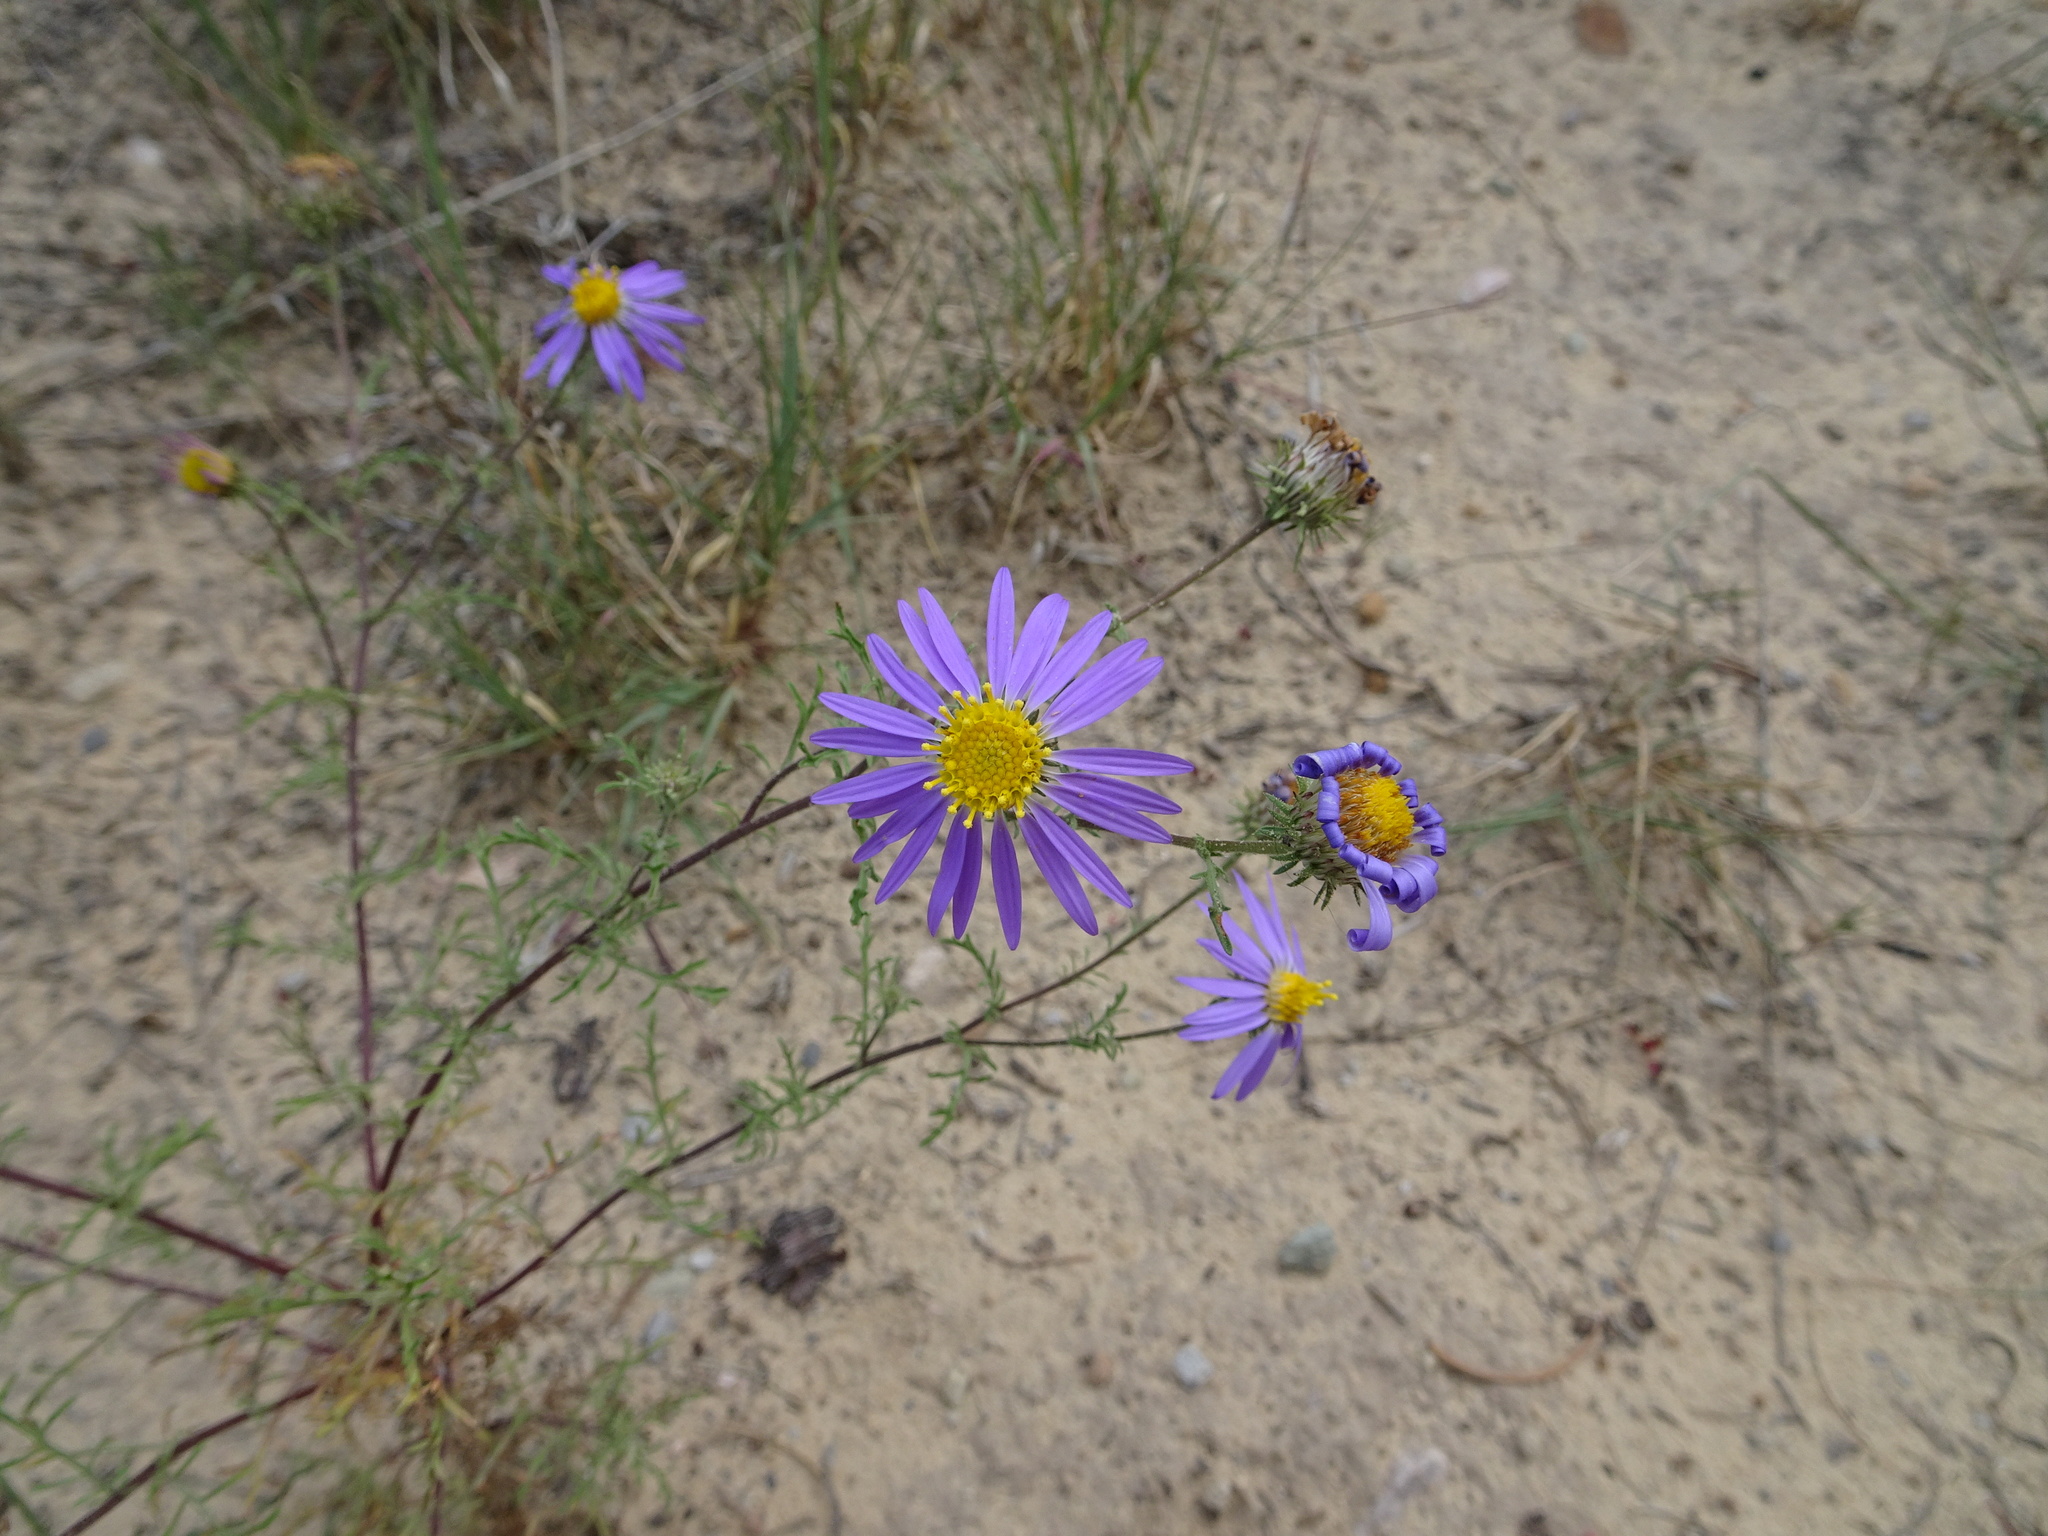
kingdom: Plantae
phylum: Tracheophyta
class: Magnoliopsida
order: Asterales
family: Asteraceae
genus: Machaeranthera
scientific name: Machaeranthera tanacetifolia
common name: Tansy-aster
